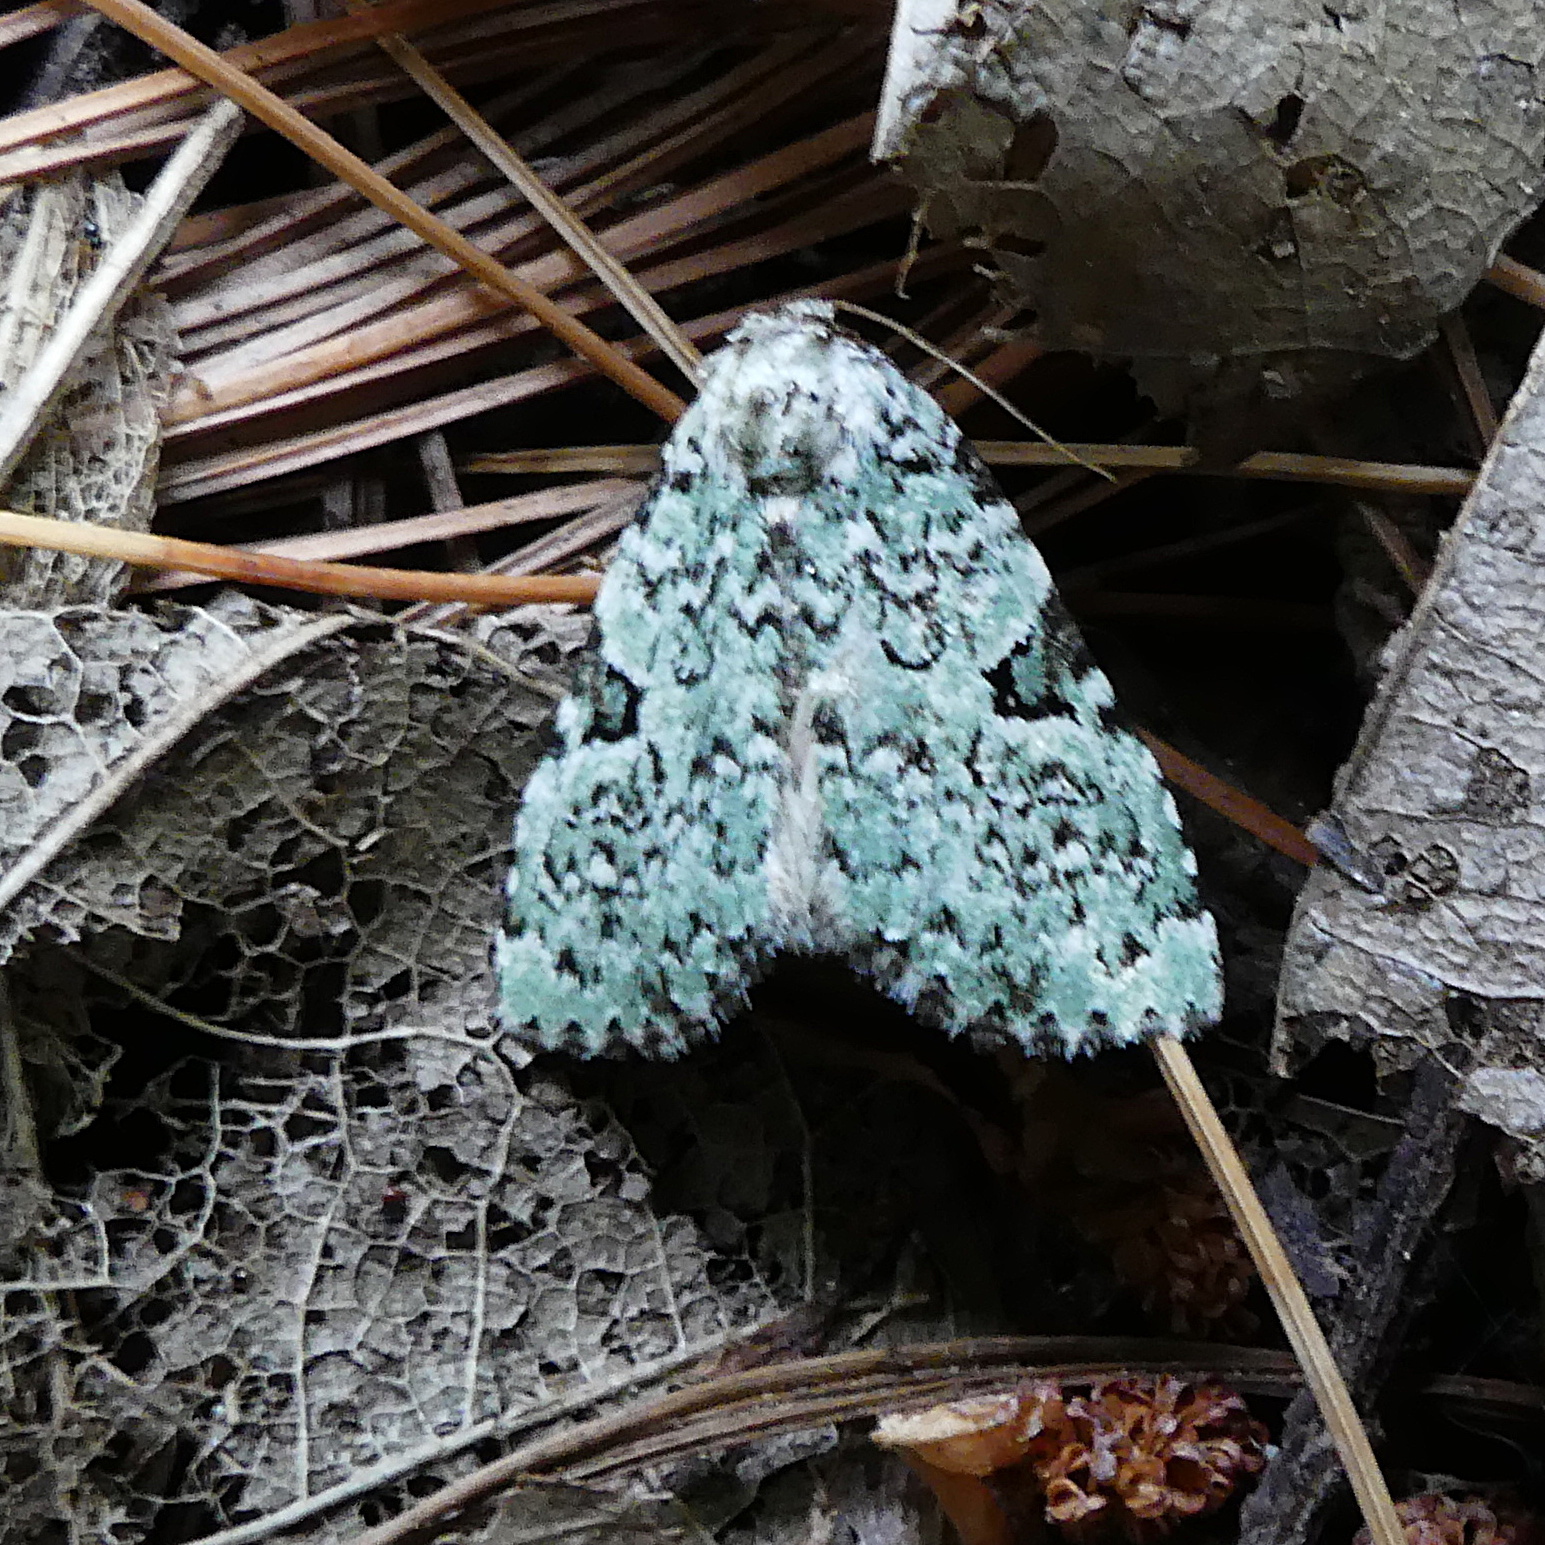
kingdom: Animalia
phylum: Arthropoda
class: Insecta
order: Lepidoptera
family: Noctuidae
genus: Leuconycta
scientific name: Leuconycta diphteroides
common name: Green leuconycta moth
